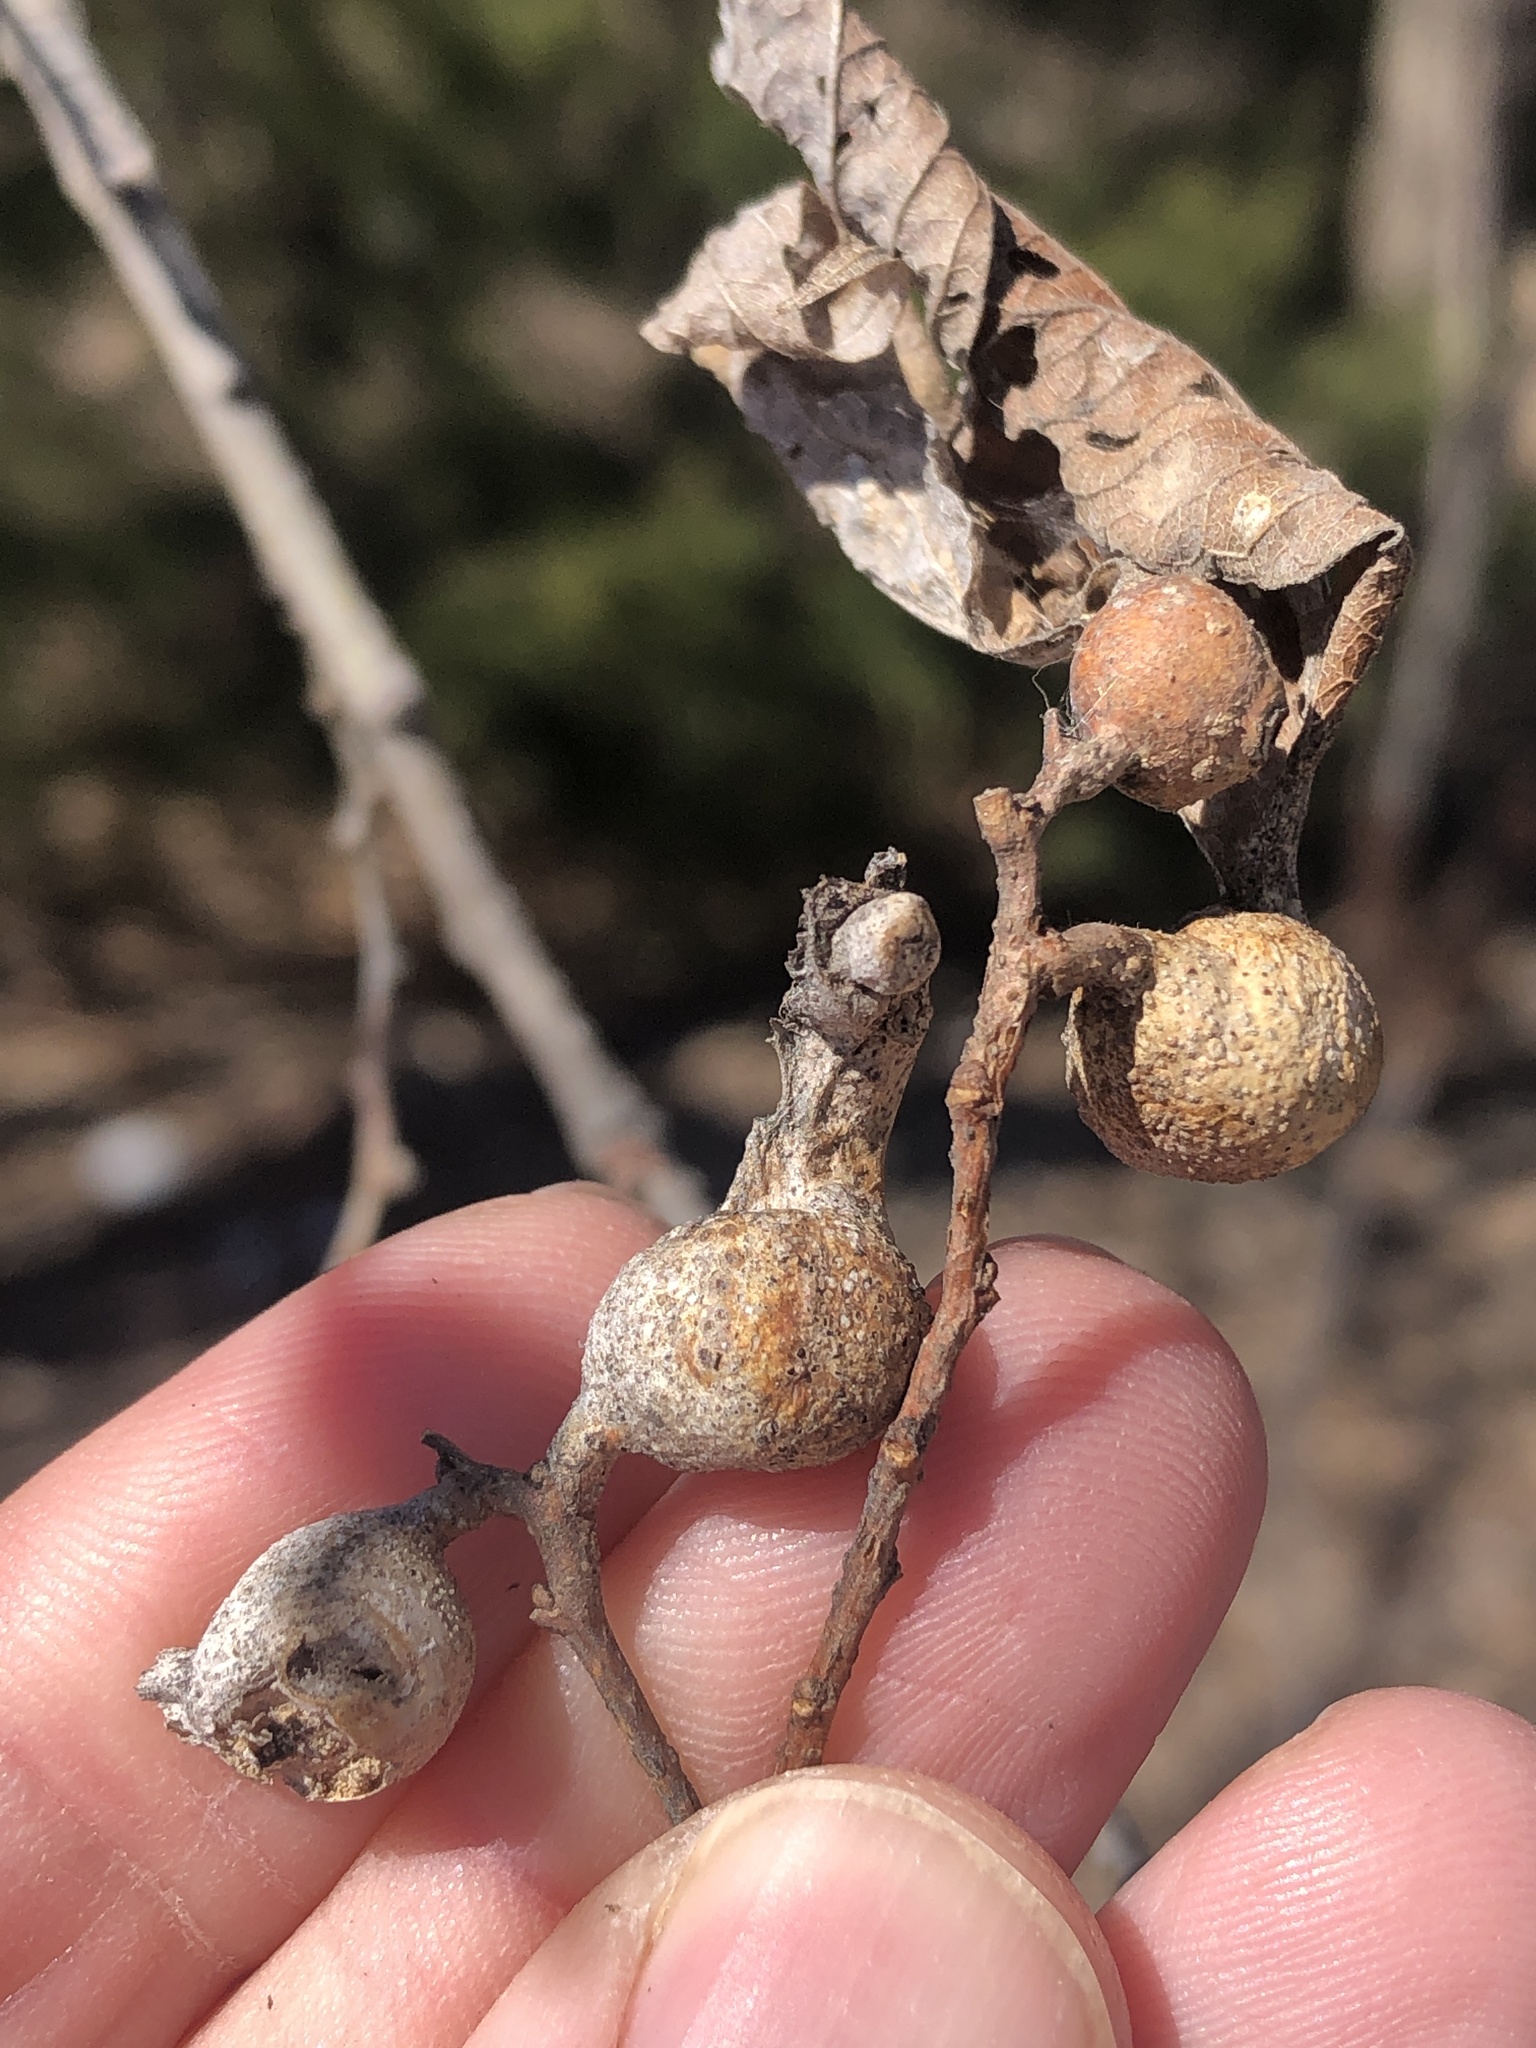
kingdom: Animalia
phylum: Arthropoda
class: Insecta
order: Hemiptera
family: Aphalaridae
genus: Pachypsylla
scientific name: Pachypsylla venusta
